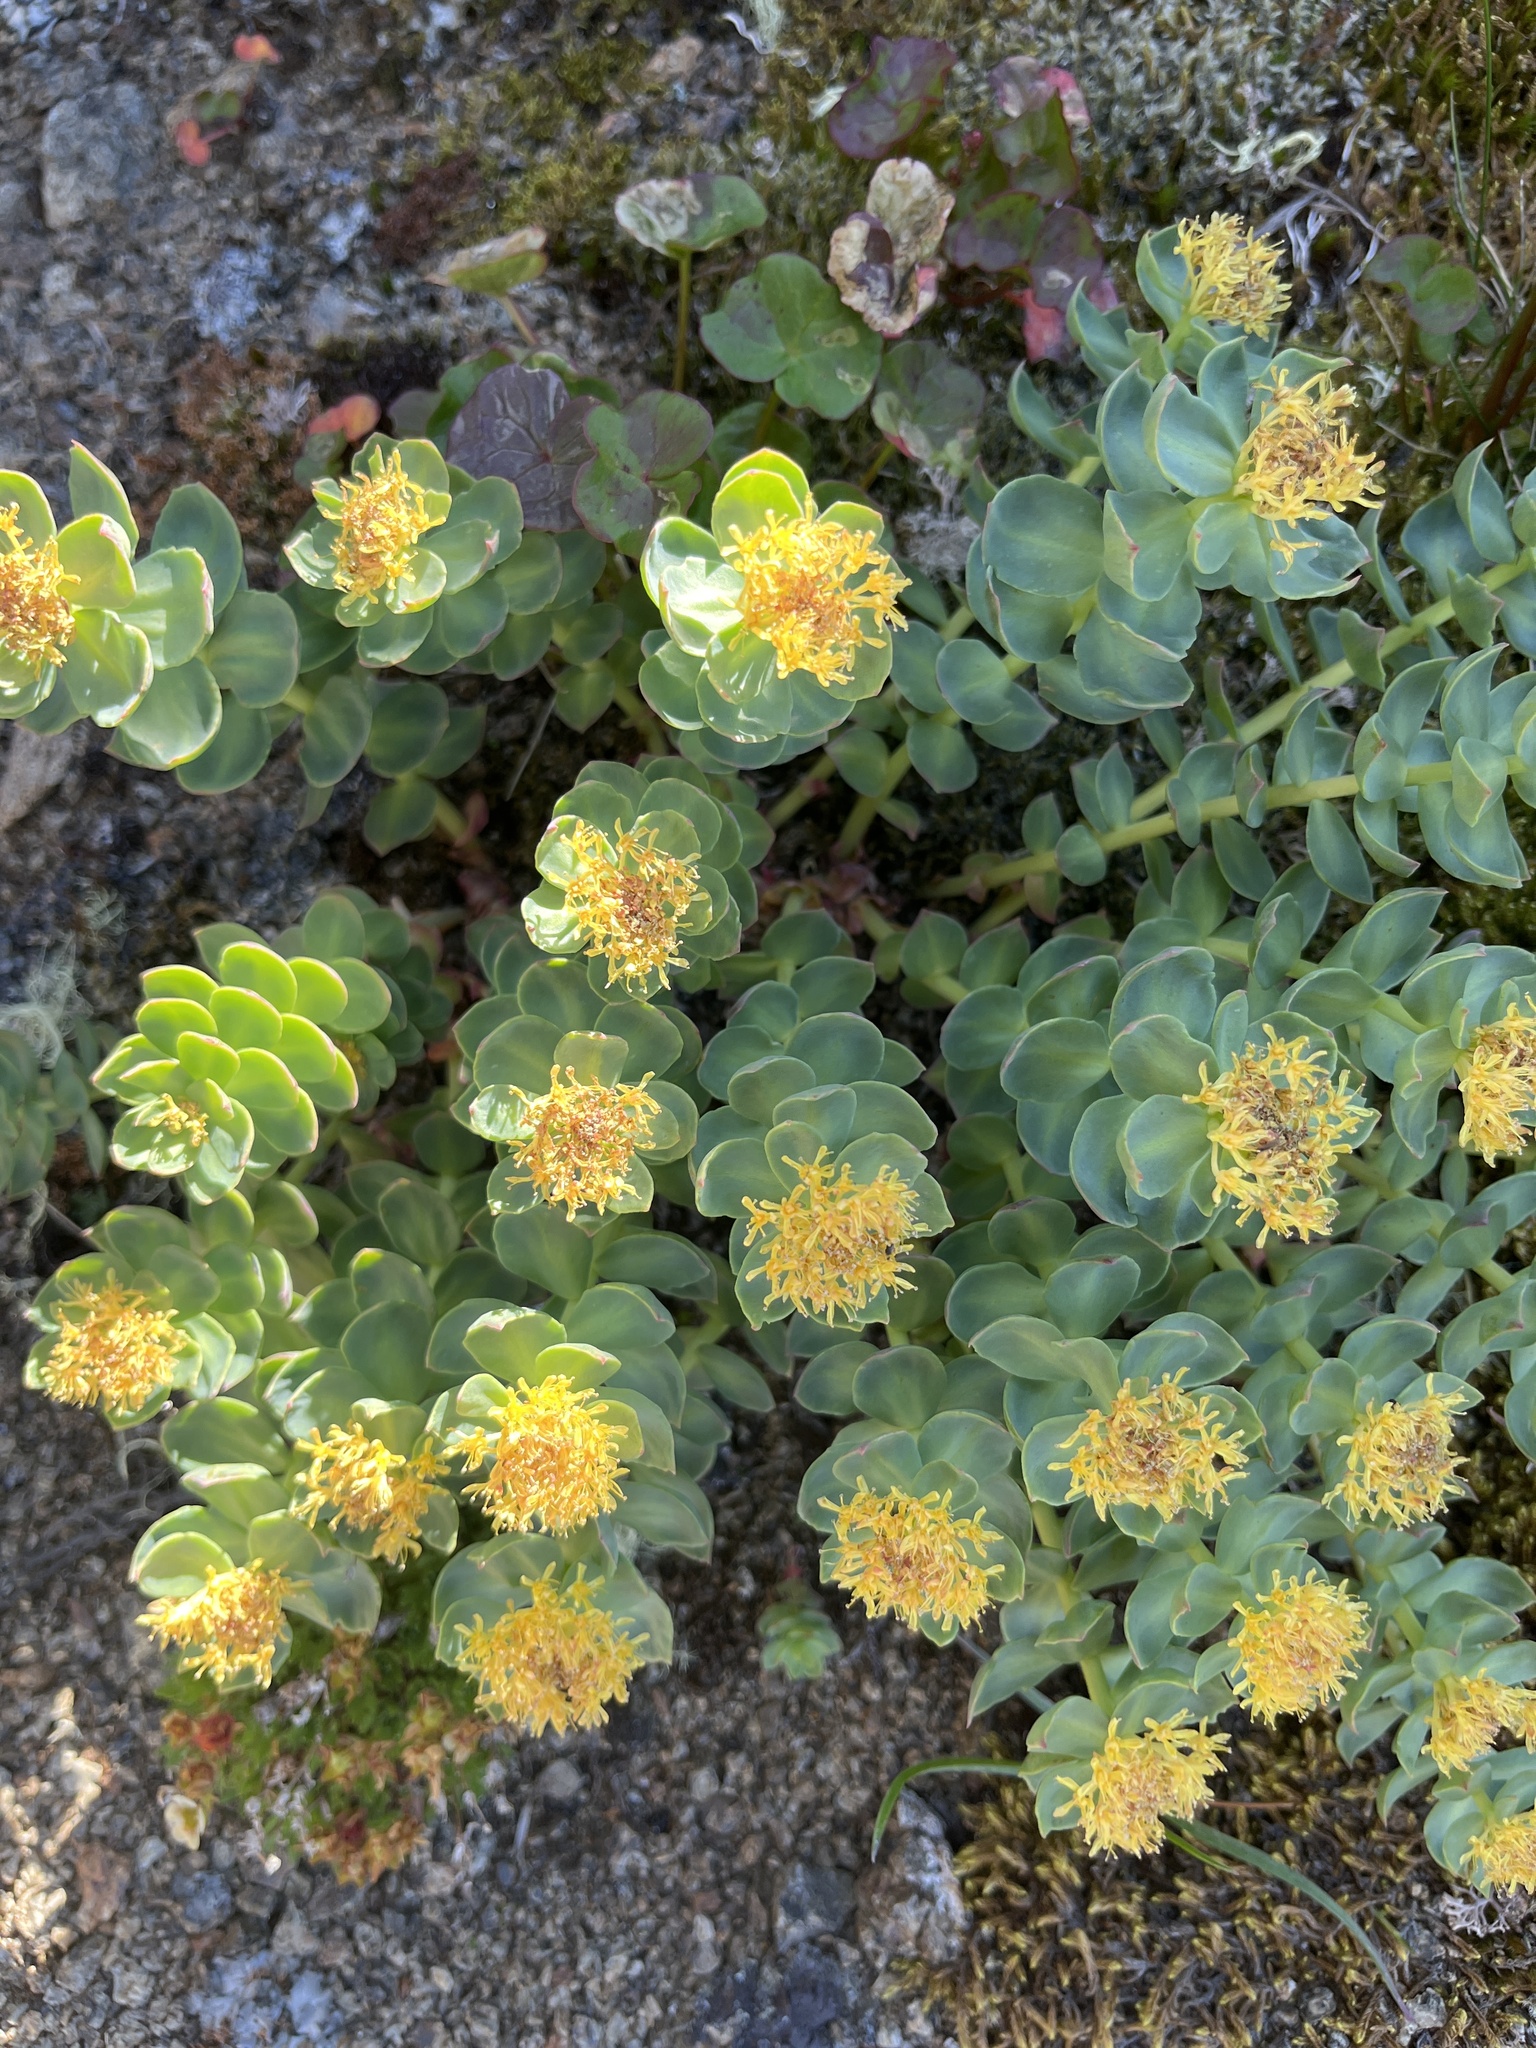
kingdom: Plantae
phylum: Tracheophyta
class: Magnoliopsida
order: Saxifragales
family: Crassulaceae
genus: Rhodiola
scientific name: Rhodiola rosea
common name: Roseroot
